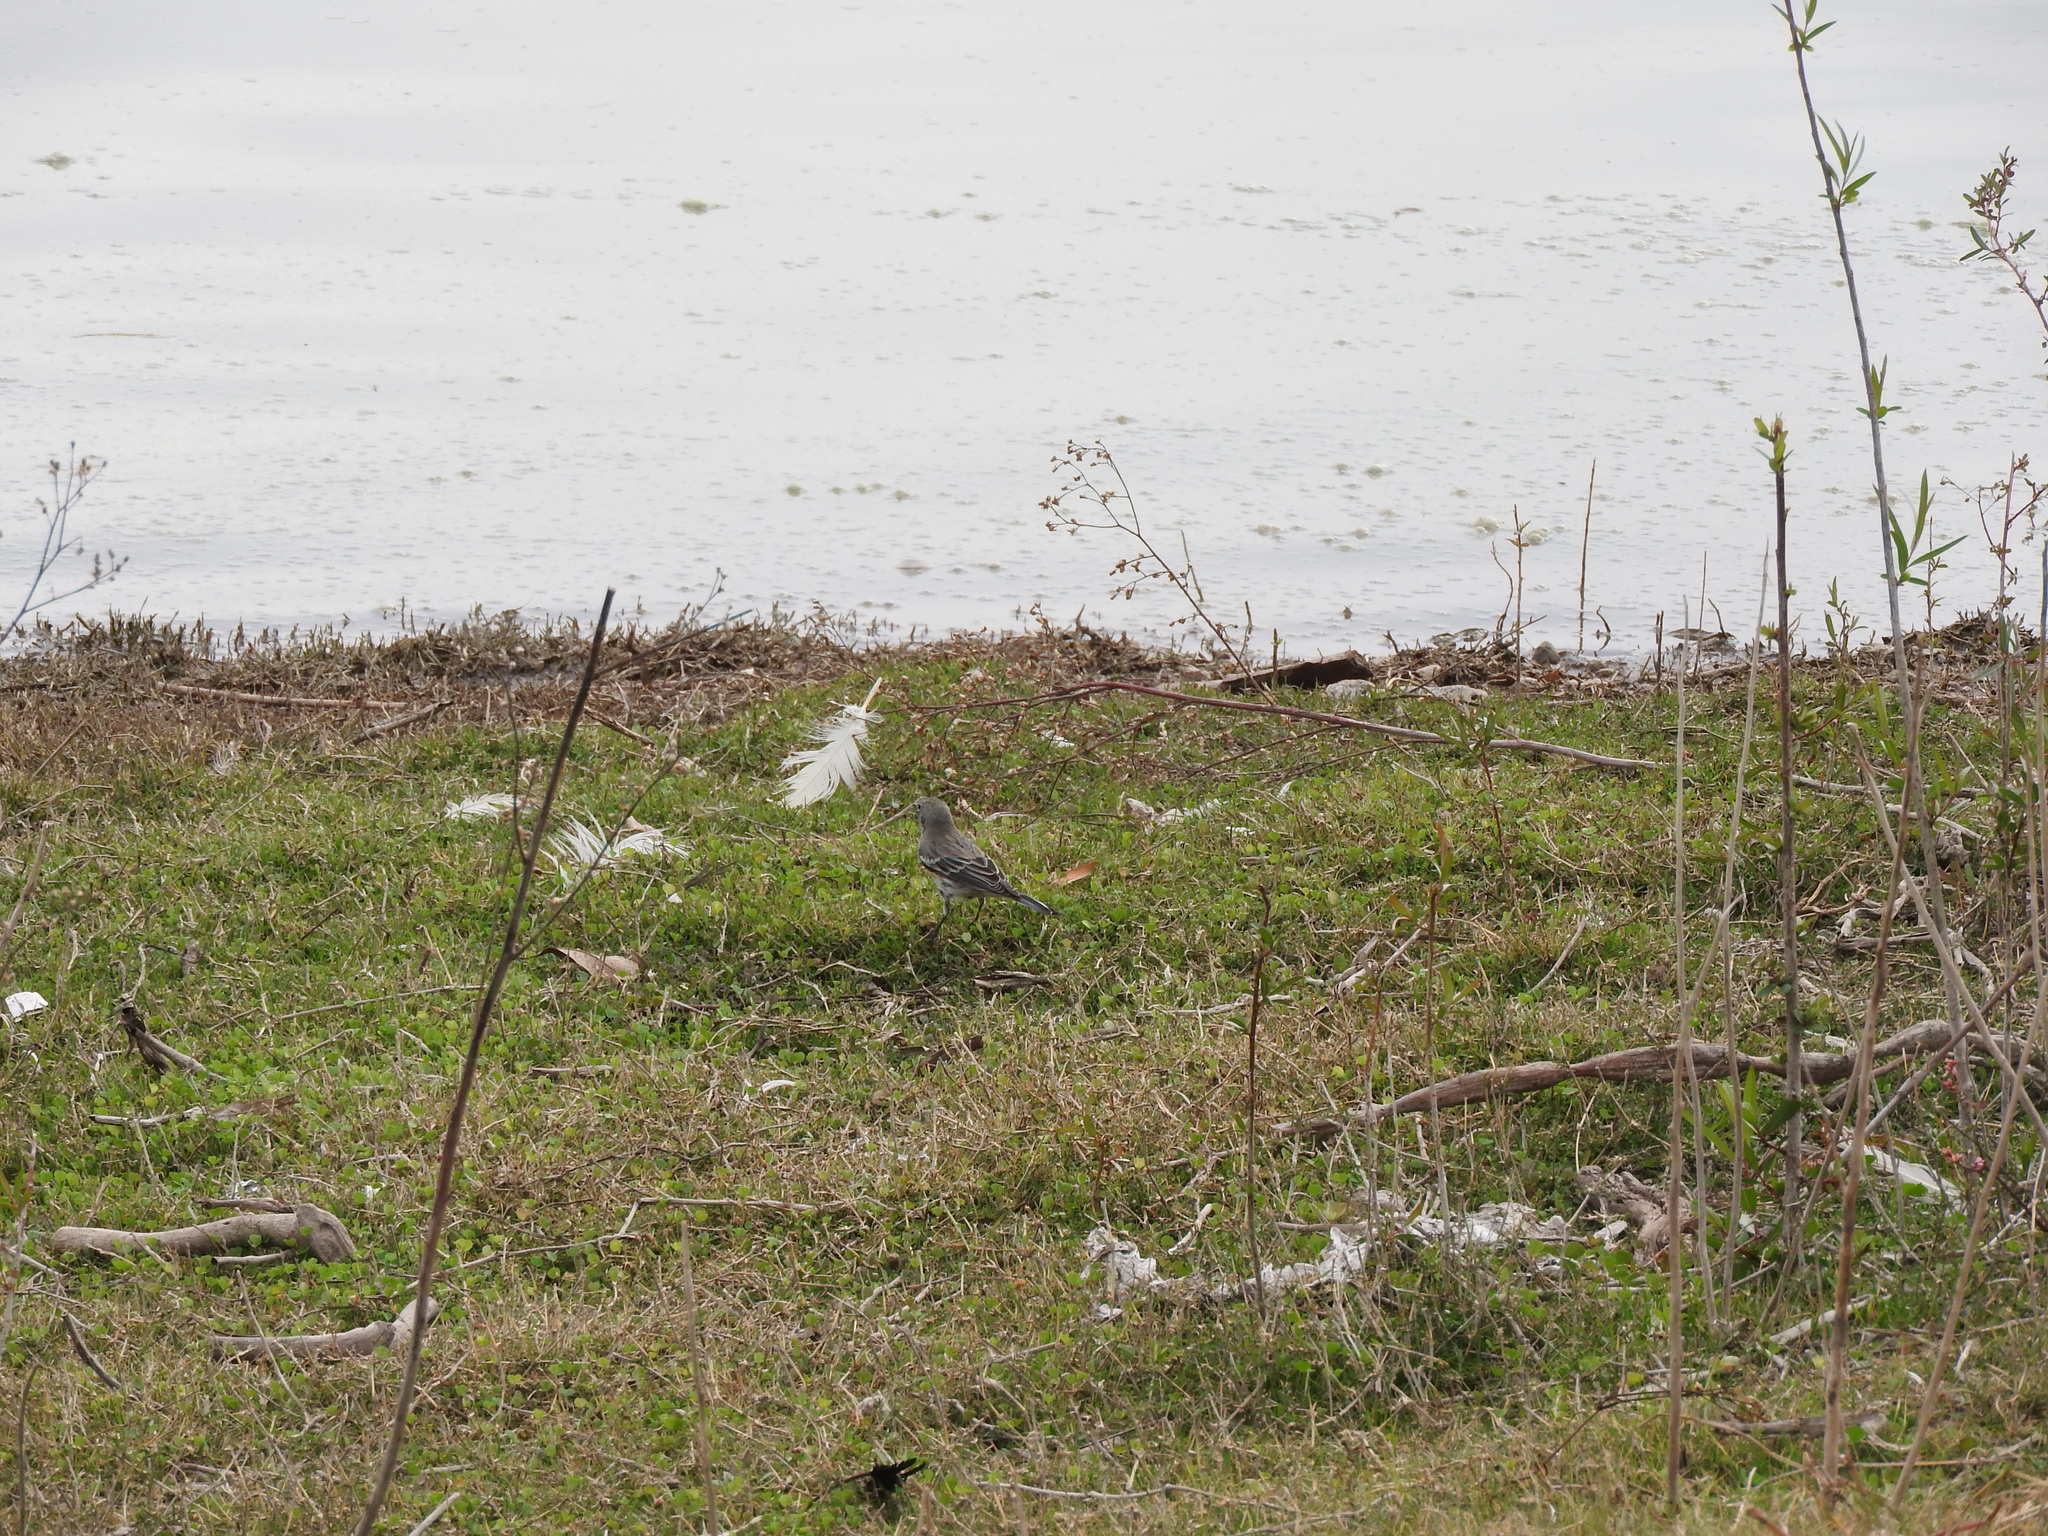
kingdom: Animalia
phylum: Chordata
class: Aves
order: Passeriformes
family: Parulidae
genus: Setophaga
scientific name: Setophaga auduboni
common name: Audubon's warbler
